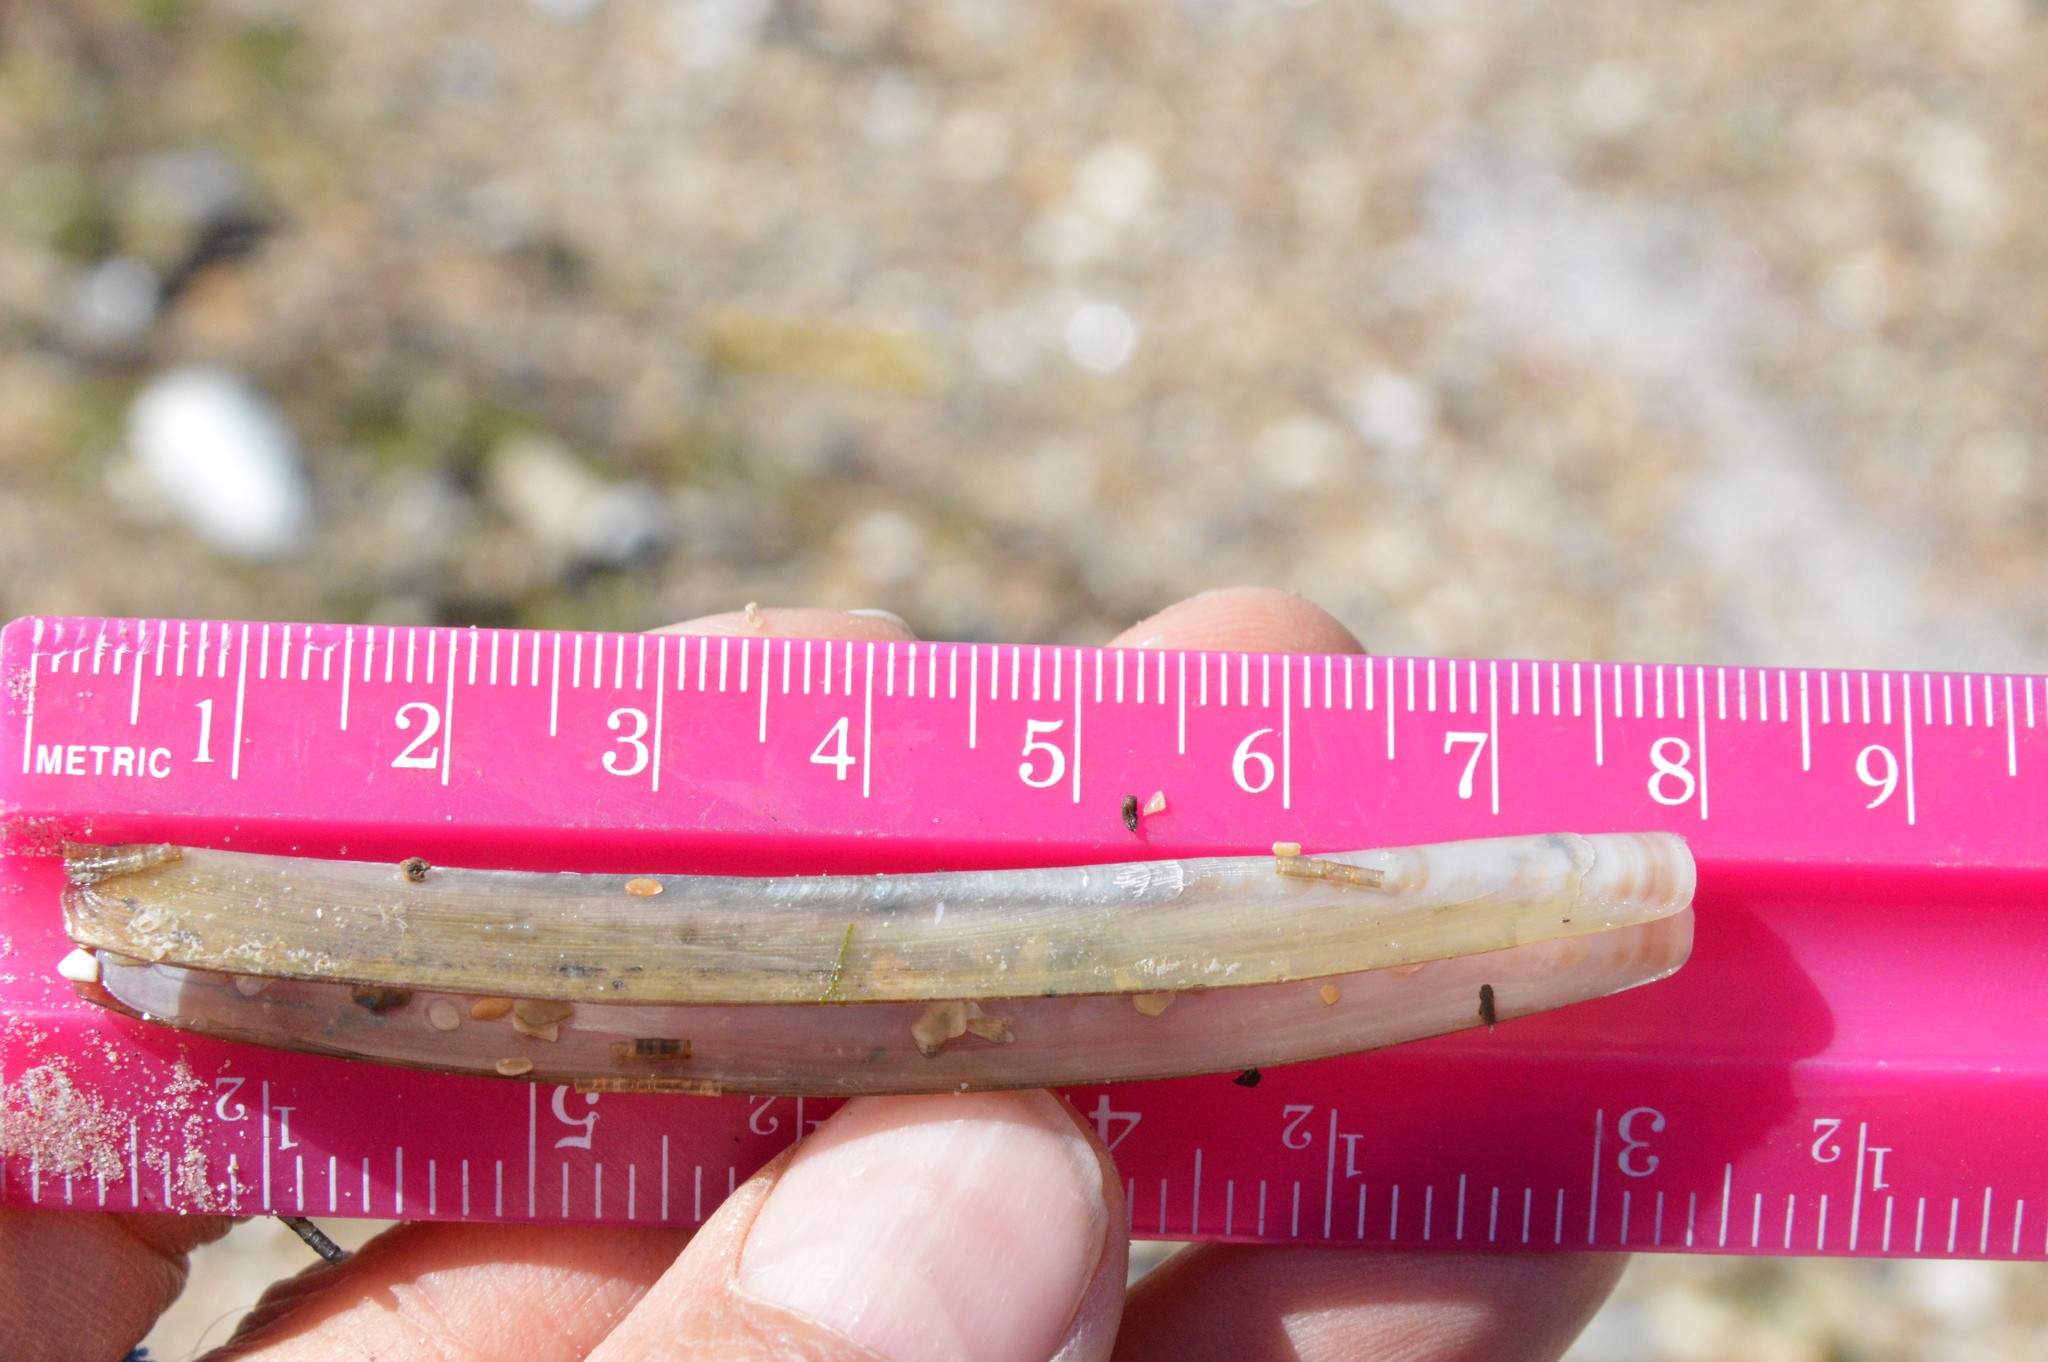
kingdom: Animalia
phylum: Mollusca
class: Bivalvia
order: Adapedonta
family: Pharidae
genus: Ensis
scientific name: Ensis megistus
